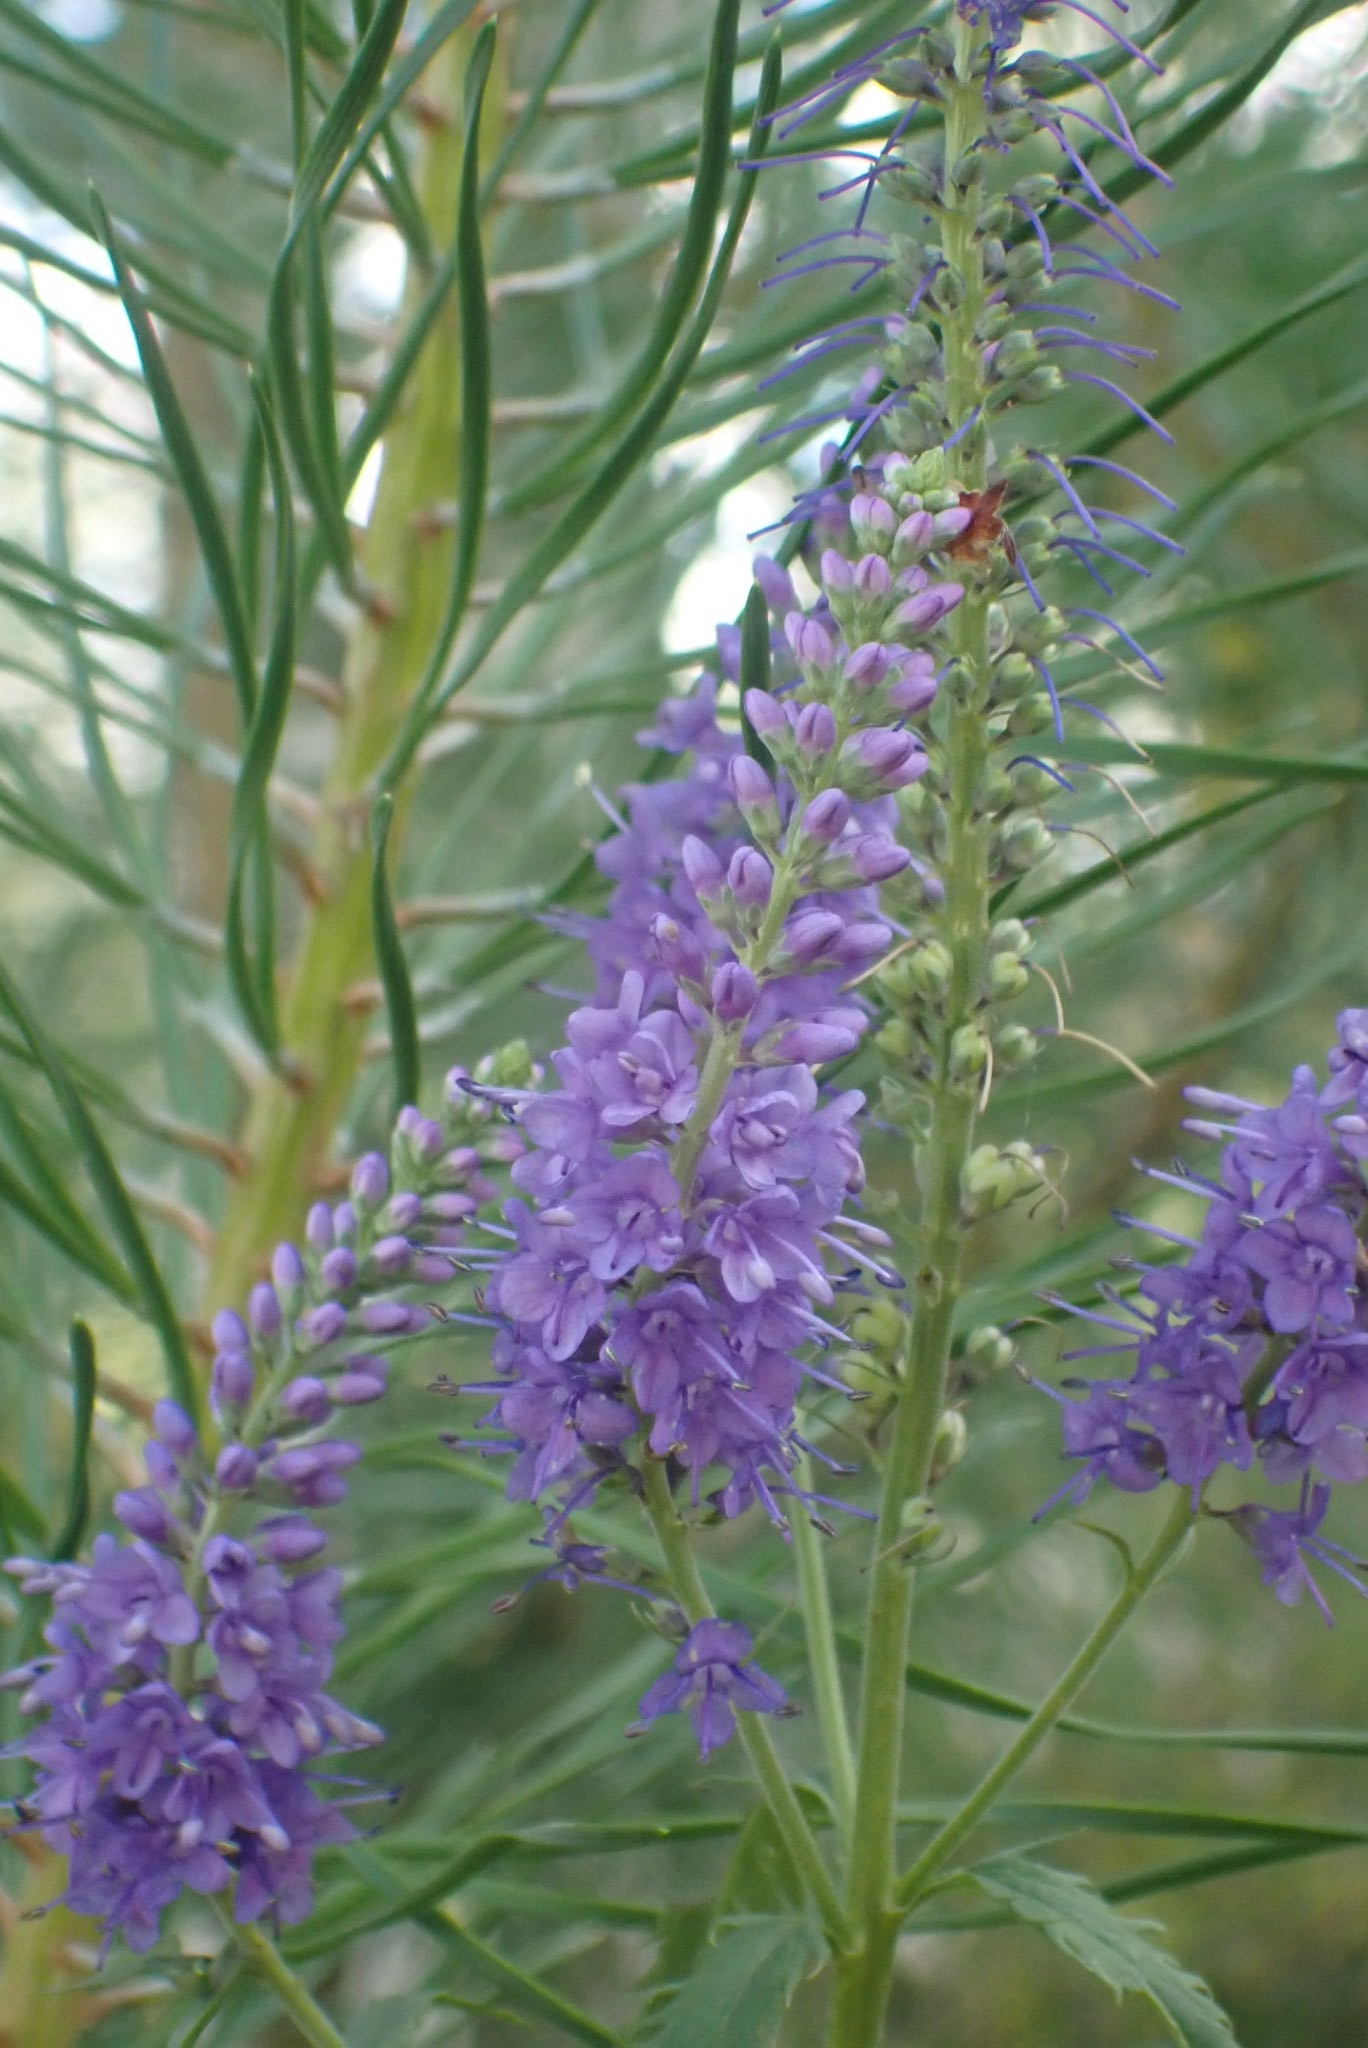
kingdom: Plantae
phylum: Tracheophyta
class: Magnoliopsida
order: Lamiales
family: Plantaginaceae
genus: Veronica
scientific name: Veronica longifolia
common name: Garden speedwell
